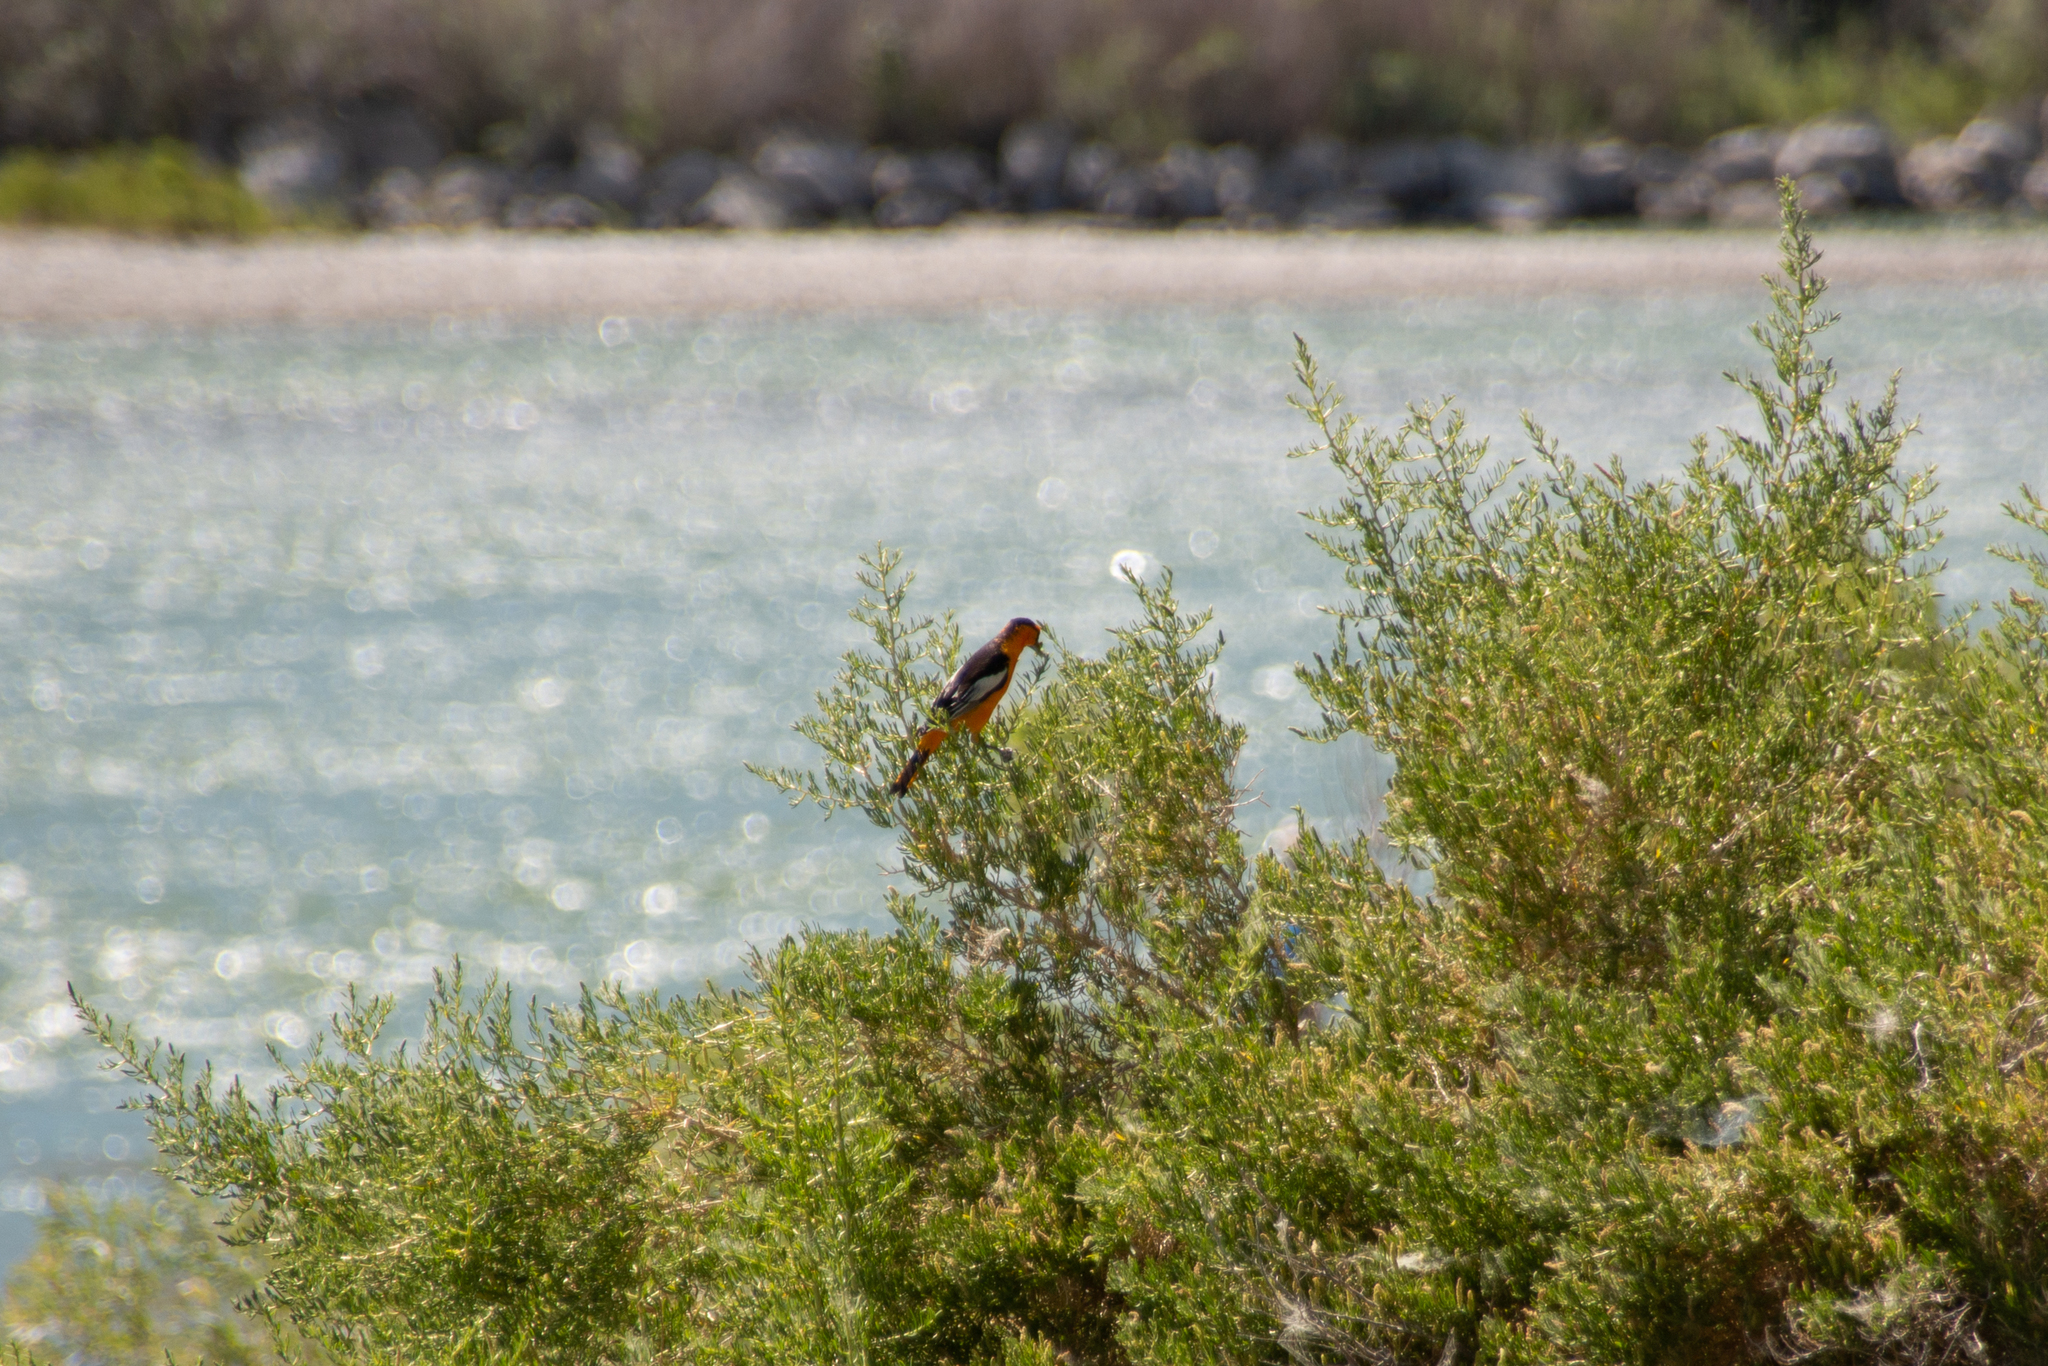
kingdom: Animalia
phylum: Chordata
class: Aves
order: Passeriformes
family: Icteridae
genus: Icterus
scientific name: Icterus bullockii
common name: Bullock's oriole
